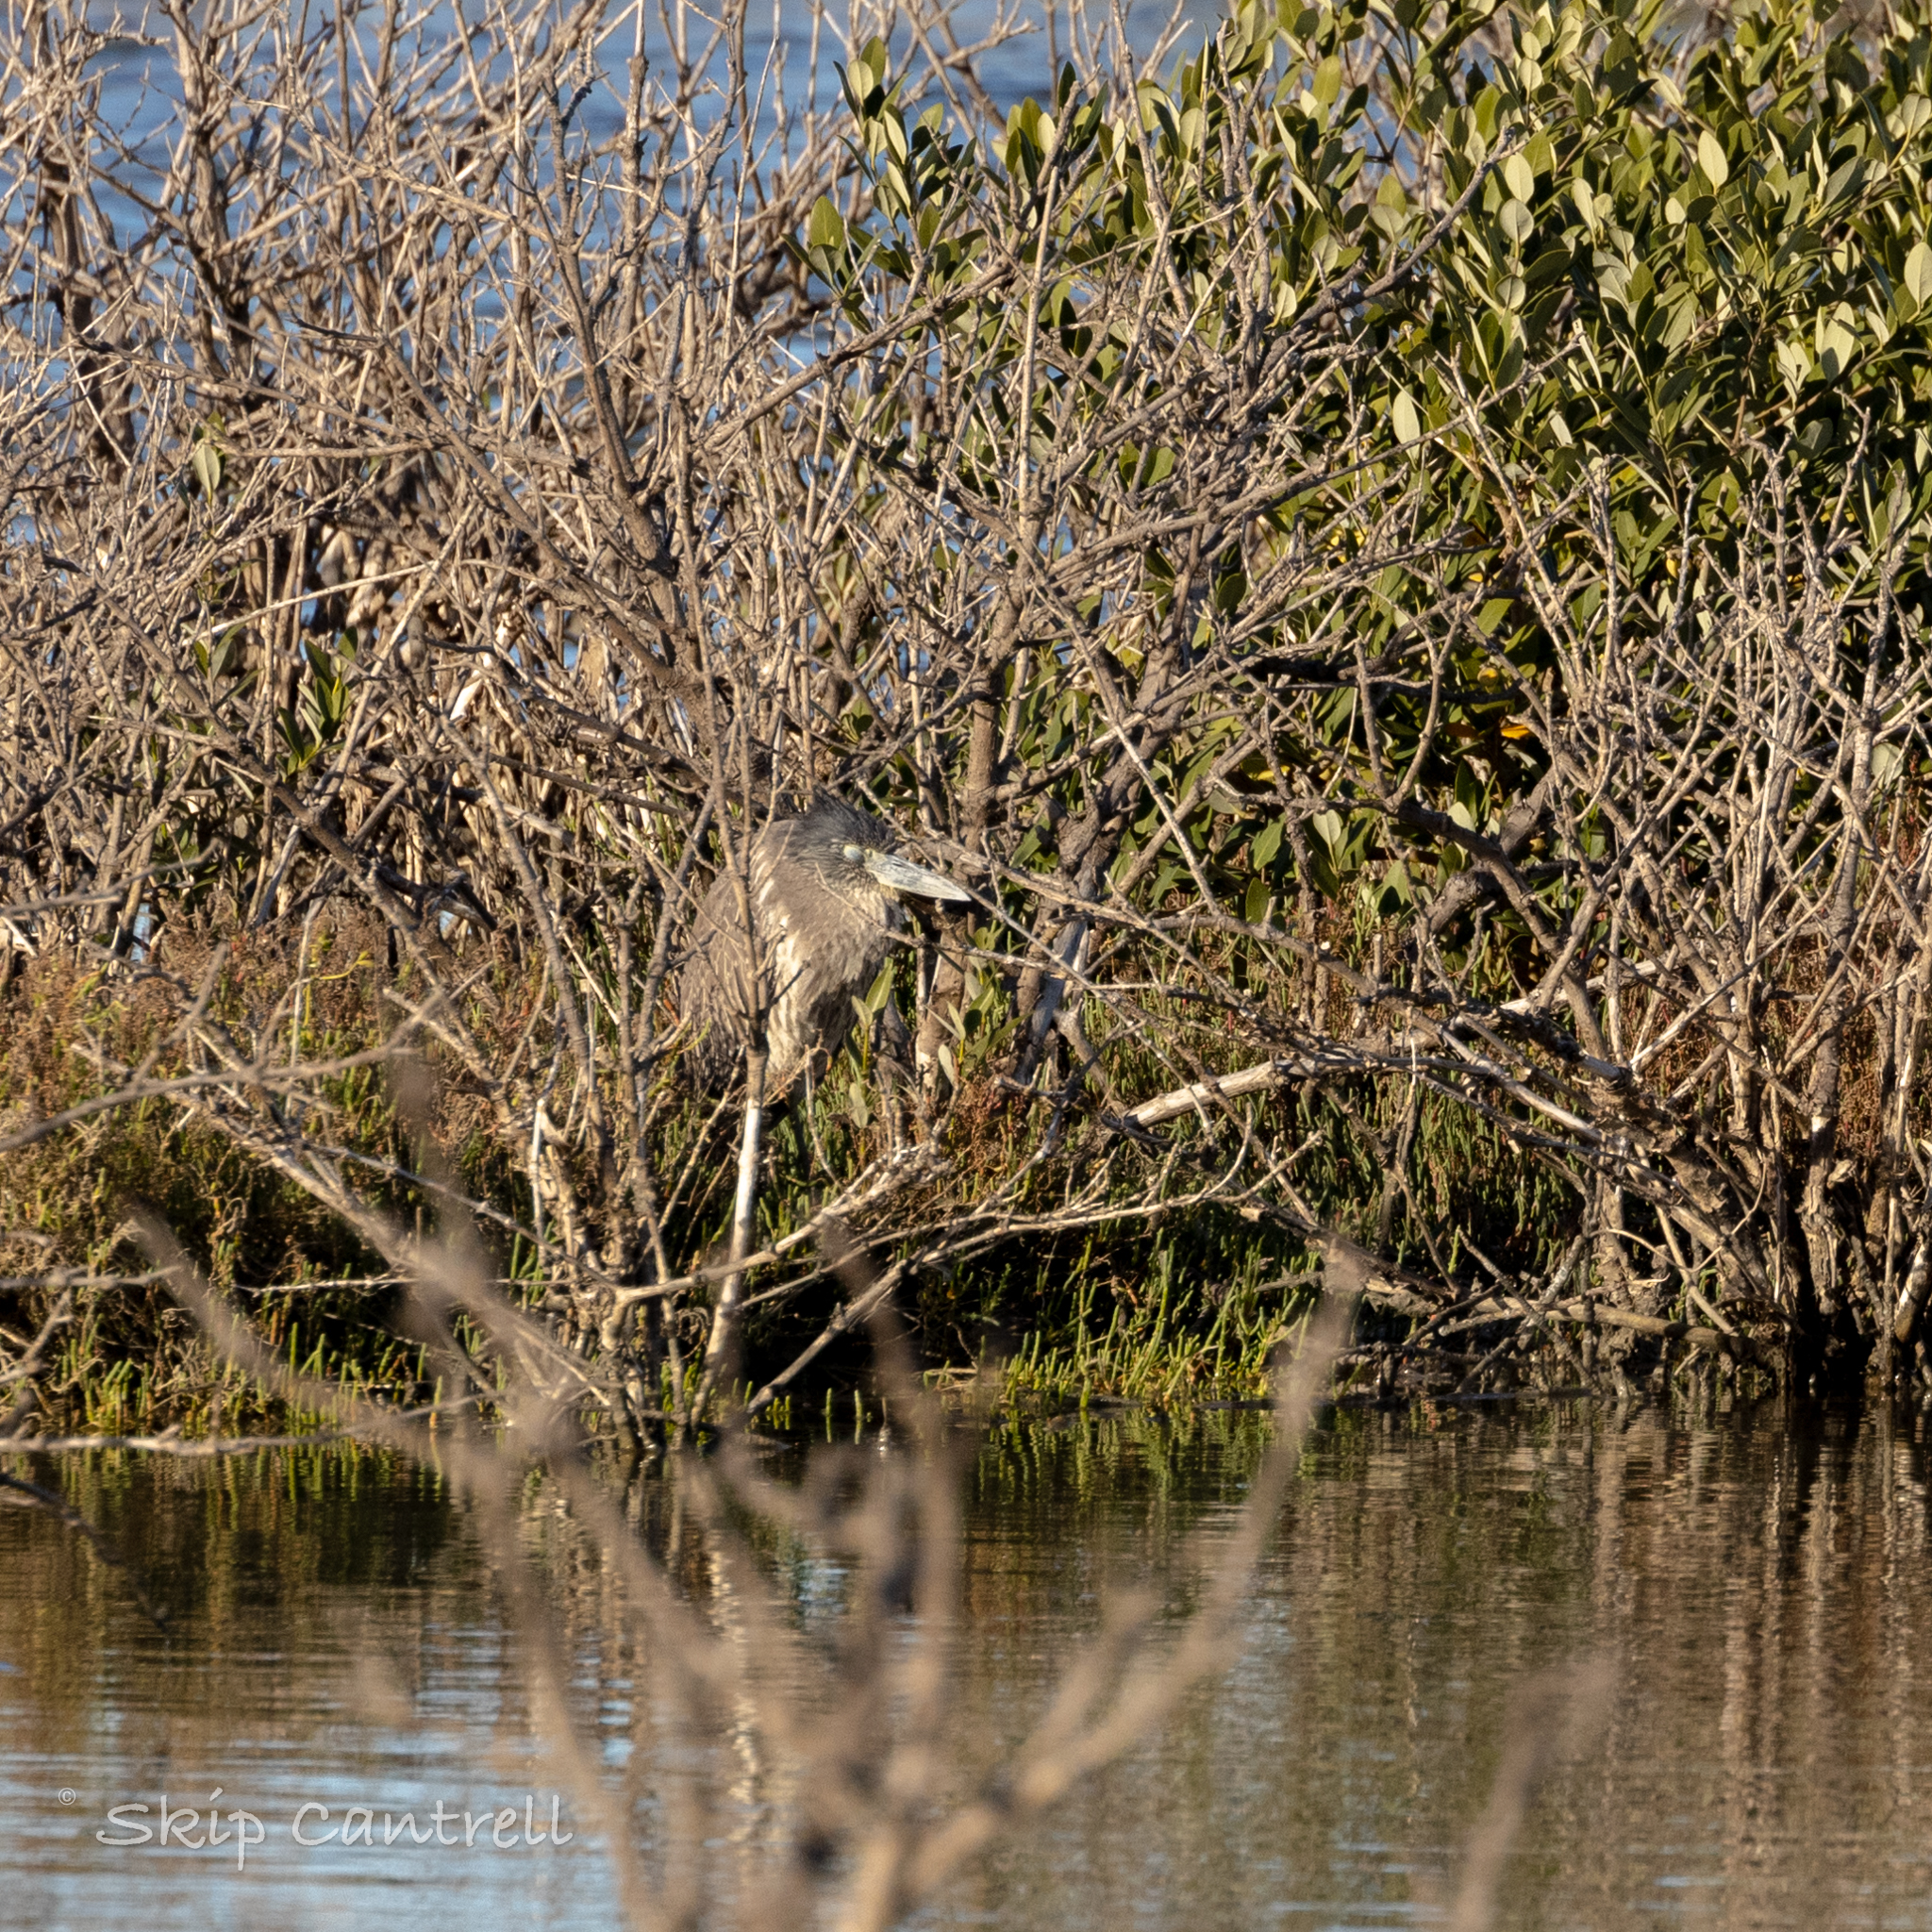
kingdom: Animalia
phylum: Chordata
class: Aves
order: Pelecaniformes
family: Ardeidae
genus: Nyctanassa
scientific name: Nyctanassa violacea
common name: Yellow-crowned night heron
